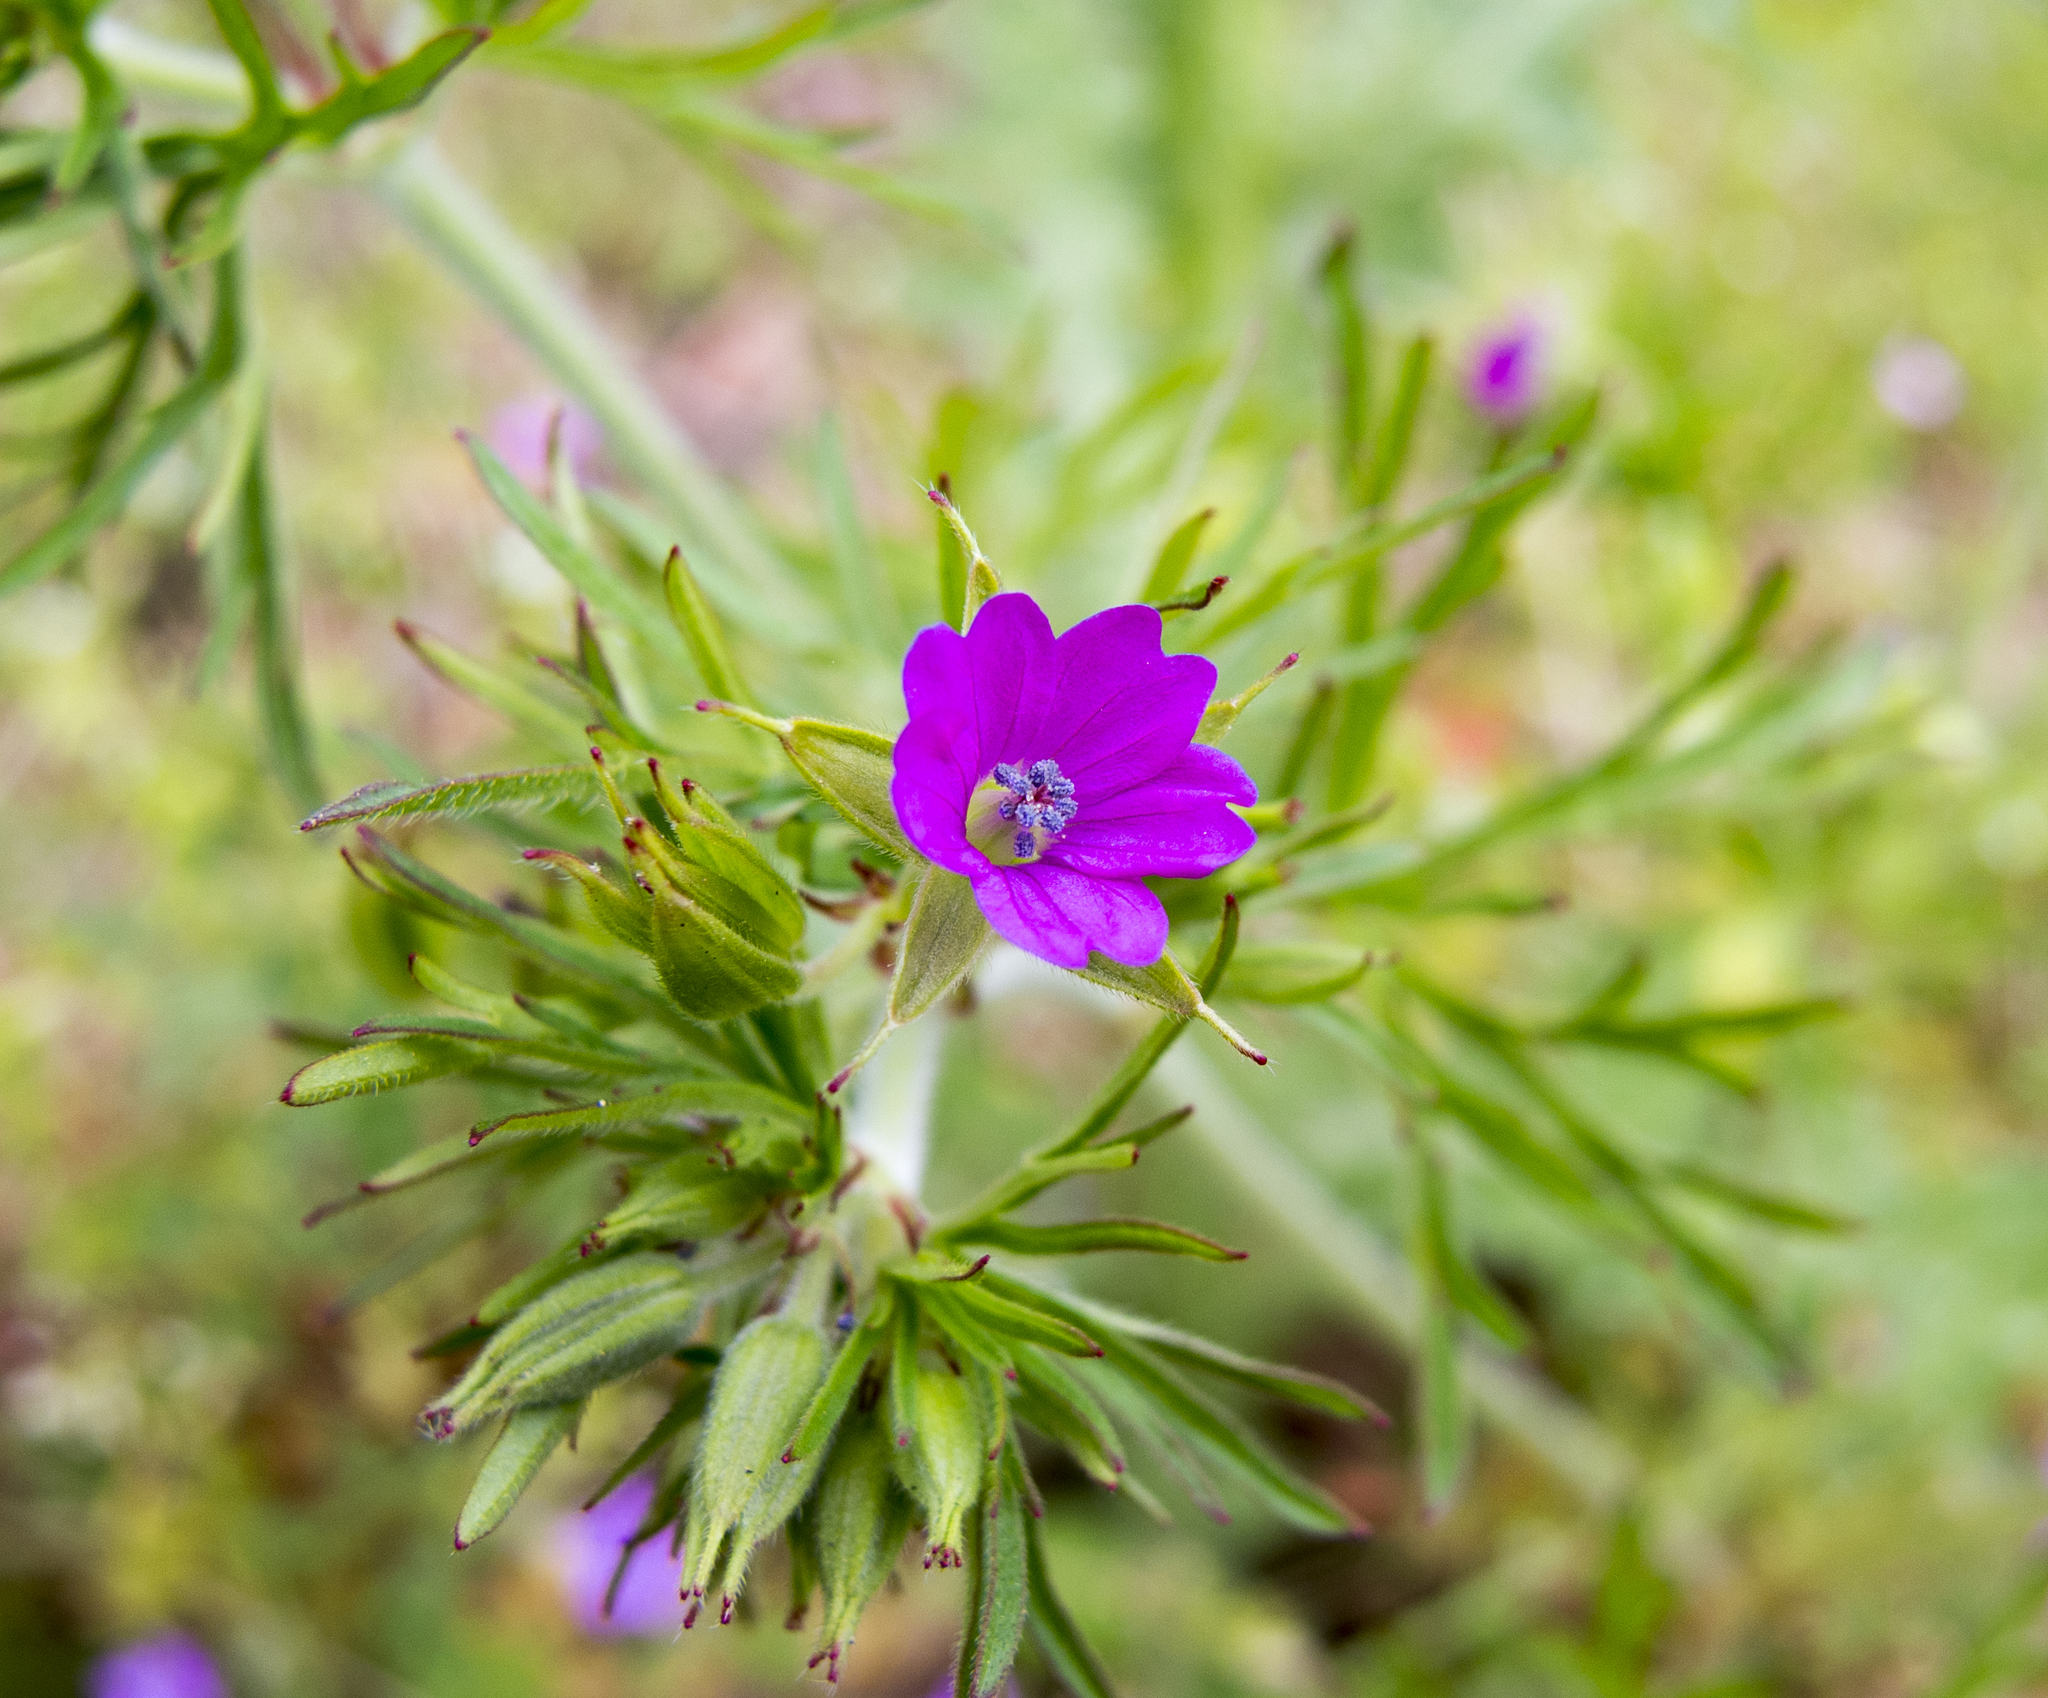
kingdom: Plantae
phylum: Tracheophyta
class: Magnoliopsida
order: Geraniales
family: Geraniaceae
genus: Geranium
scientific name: Geranium dissectum
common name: Cut-leaved crane's-bill
